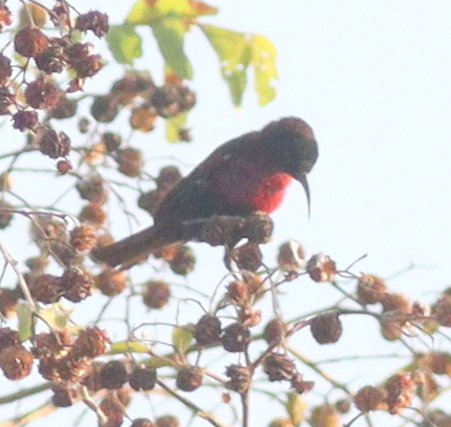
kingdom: Animalia
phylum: Chordata
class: Aves
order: Passeriformes
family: Nectariniidae
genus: Chalcomitra
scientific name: Chalcomitra senegalensis
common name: Scarlet-chested sunbird
